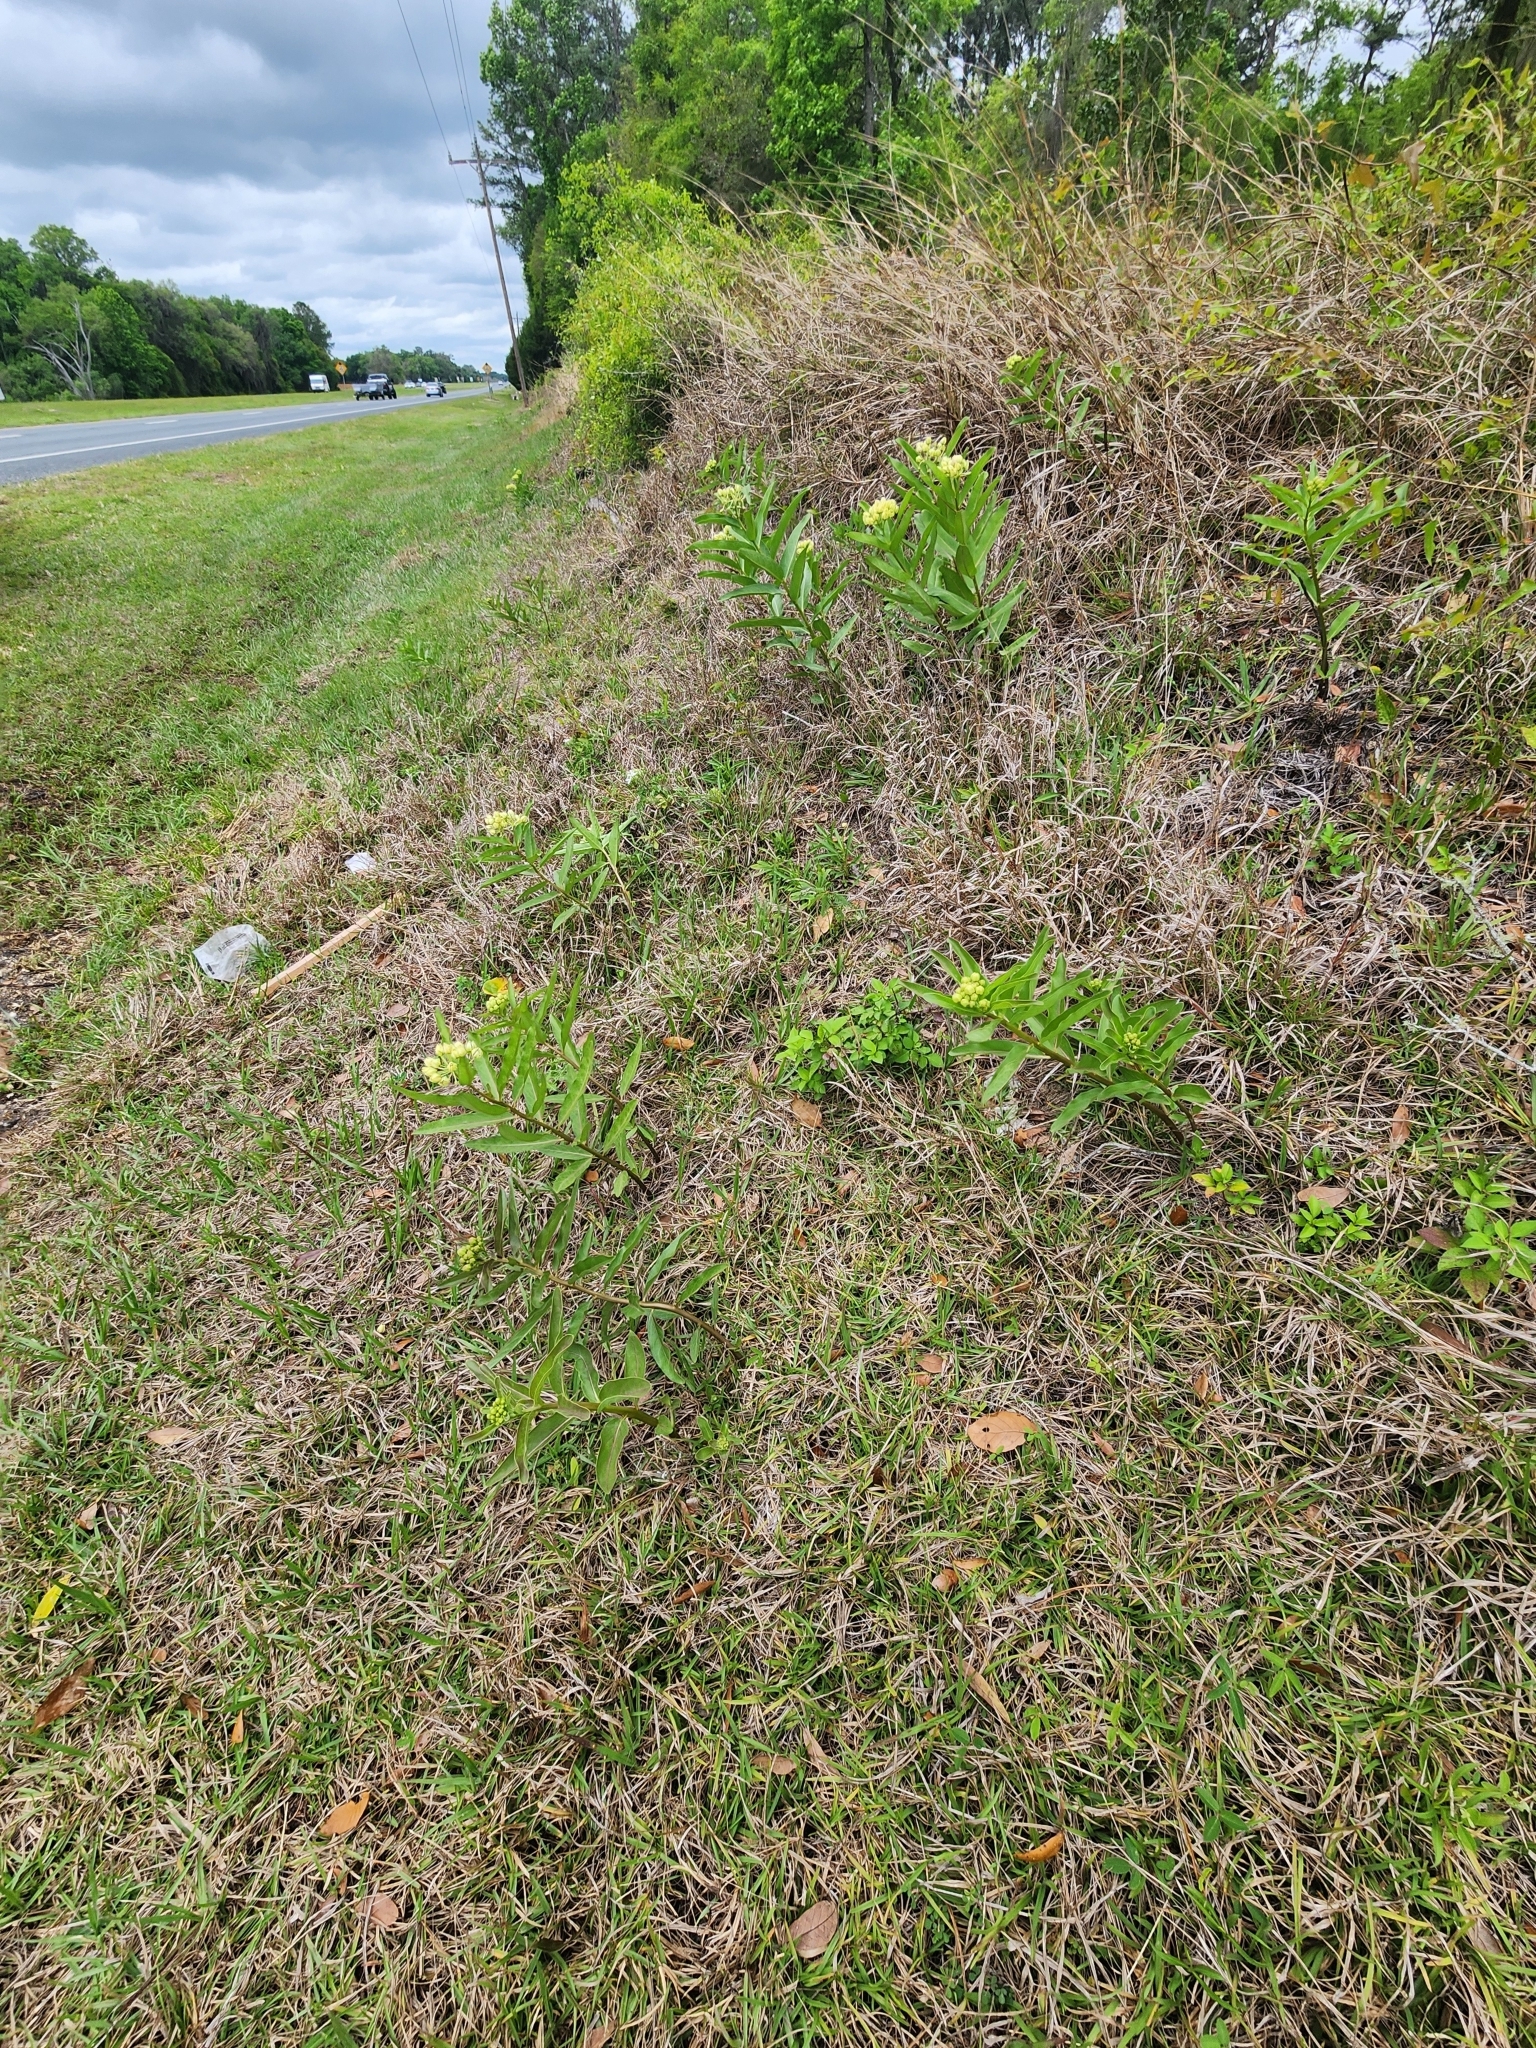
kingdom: Plantae
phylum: Tracheophyta
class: Magnoliopsida
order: Gentianales
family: Apocynaceae
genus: Asclepias
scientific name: Asclepias viridis
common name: Antelope-horns
